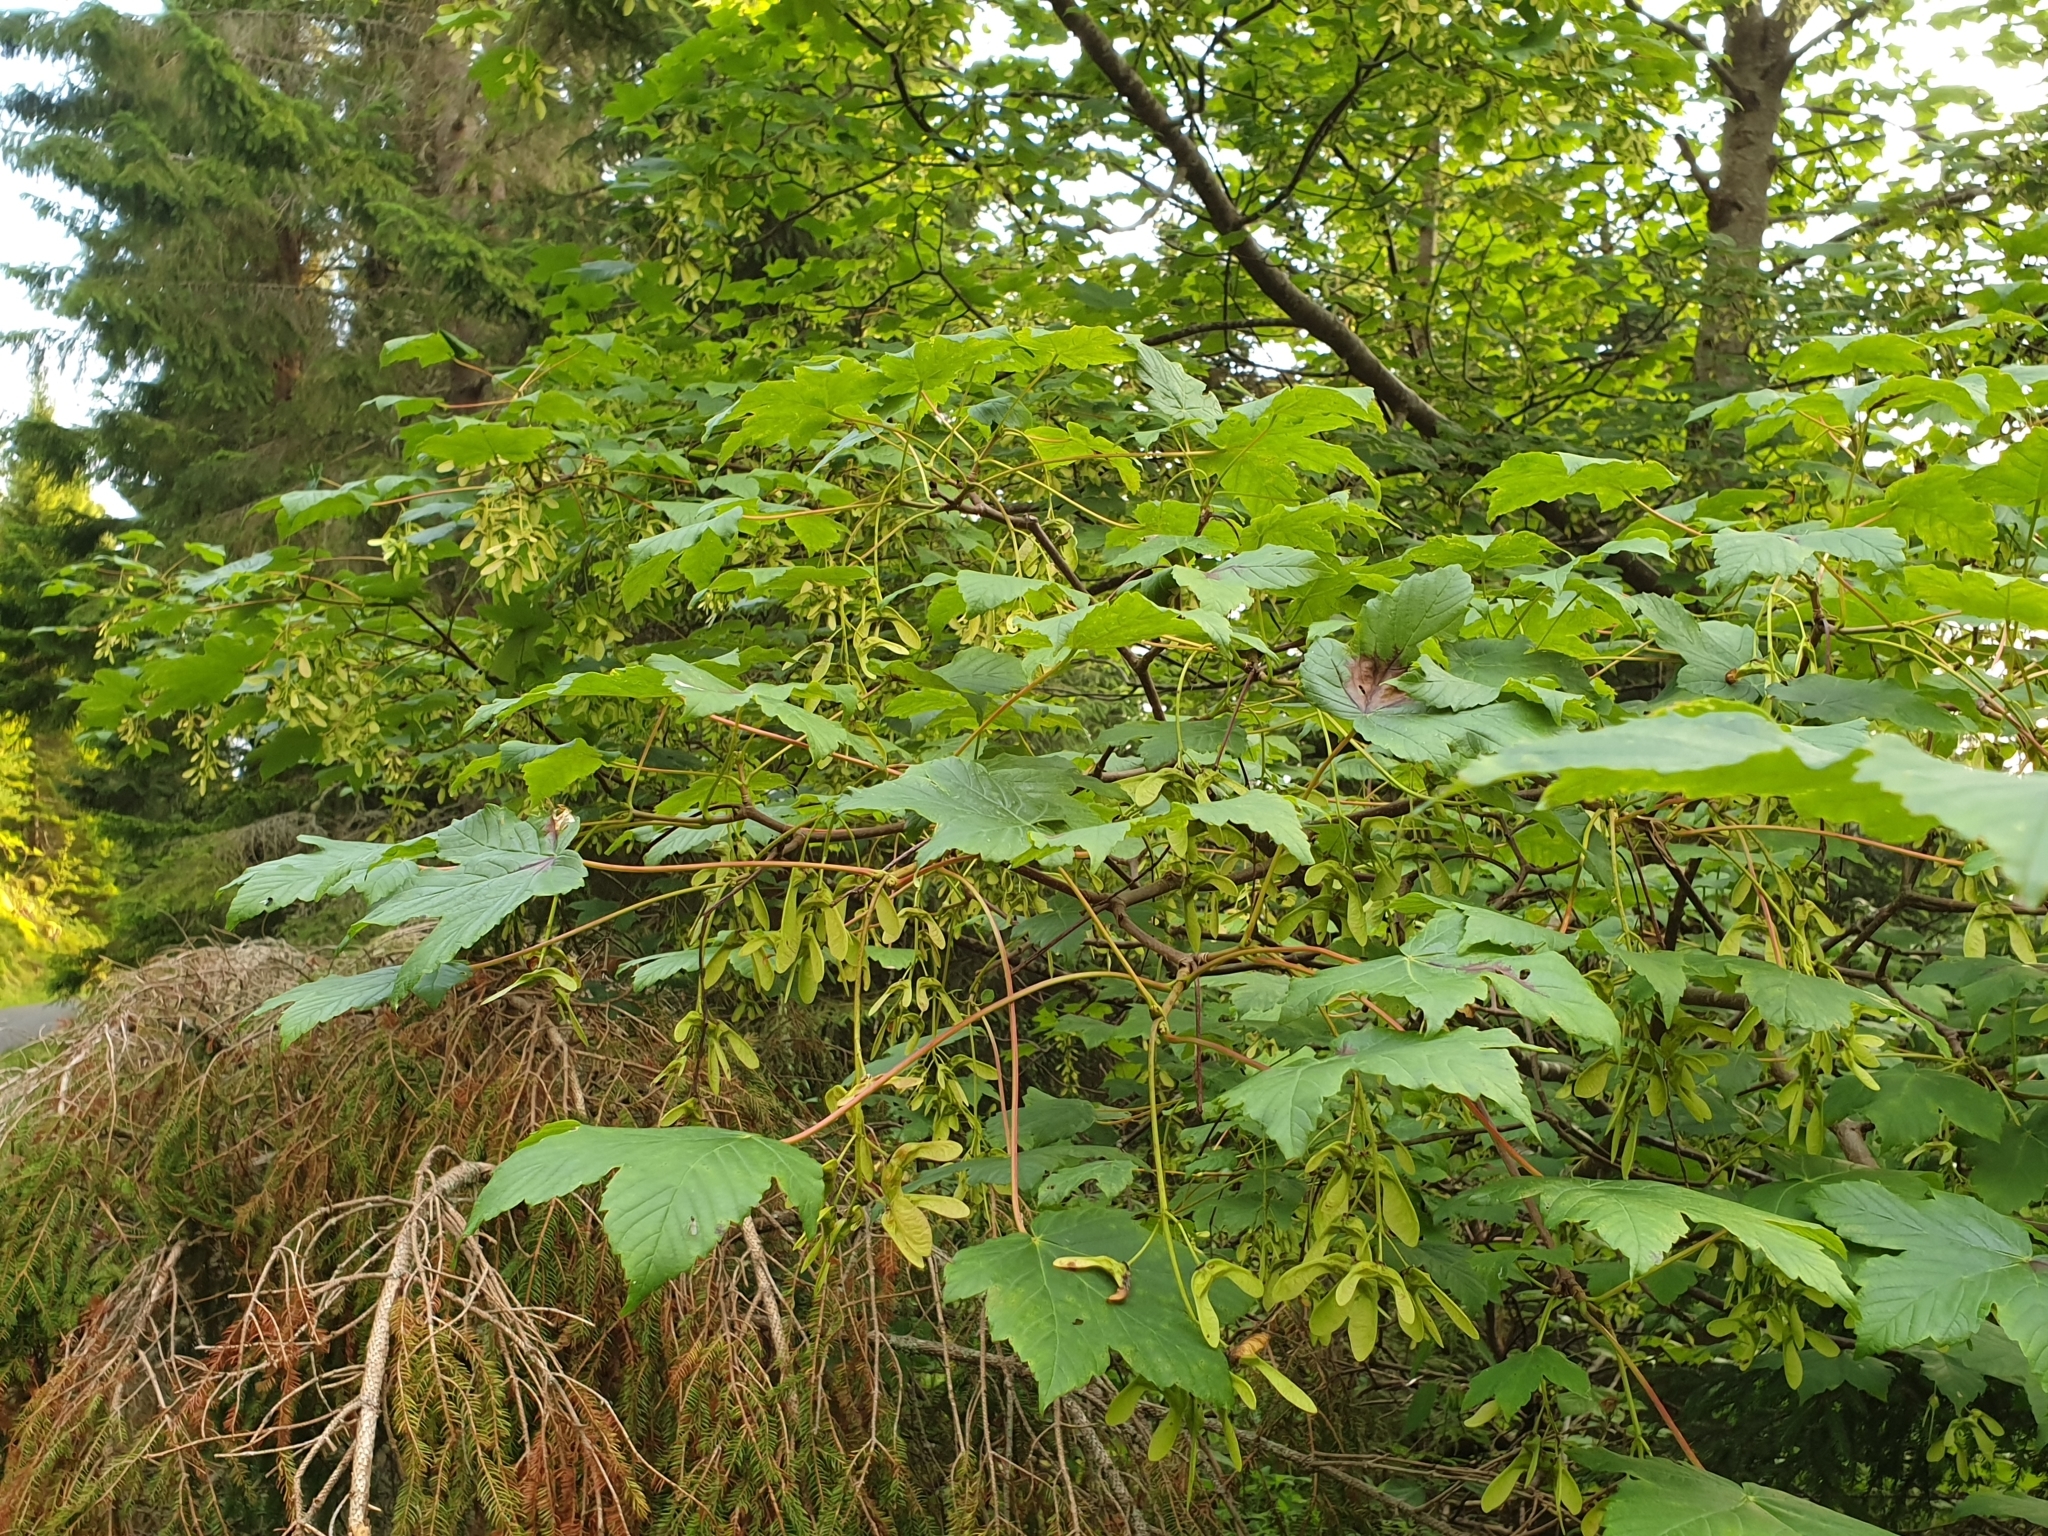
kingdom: Plantae
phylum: Tracheophyta
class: Magnoliopsida
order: Sapindales
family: Sapindaceae
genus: Acer
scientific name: Acer pseudoplatanus
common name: Sycamore
